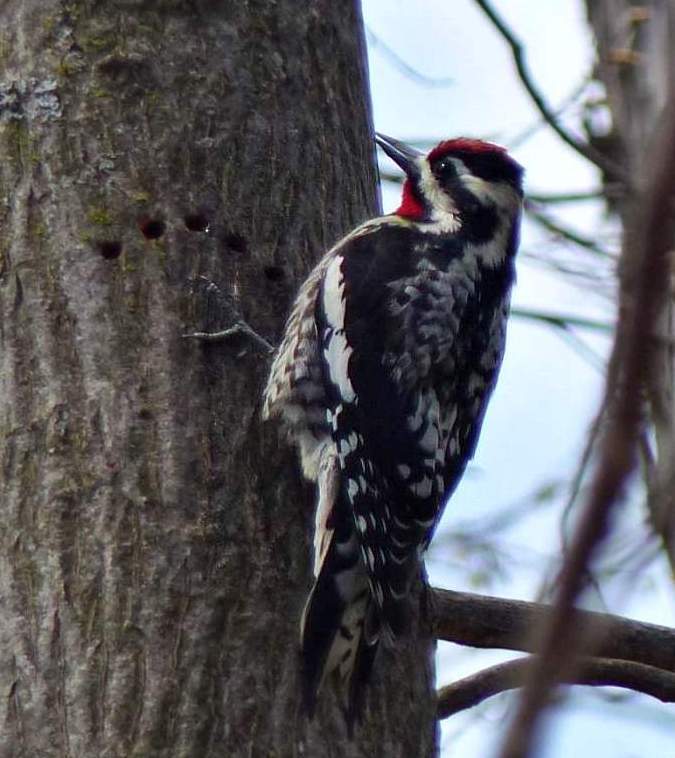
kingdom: Animalia
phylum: Chordata
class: Aves
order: Piciformes
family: Picidae
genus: Sphyrapicus
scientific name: Sphyrapicus varius
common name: Yellow-bellied sapsucker
